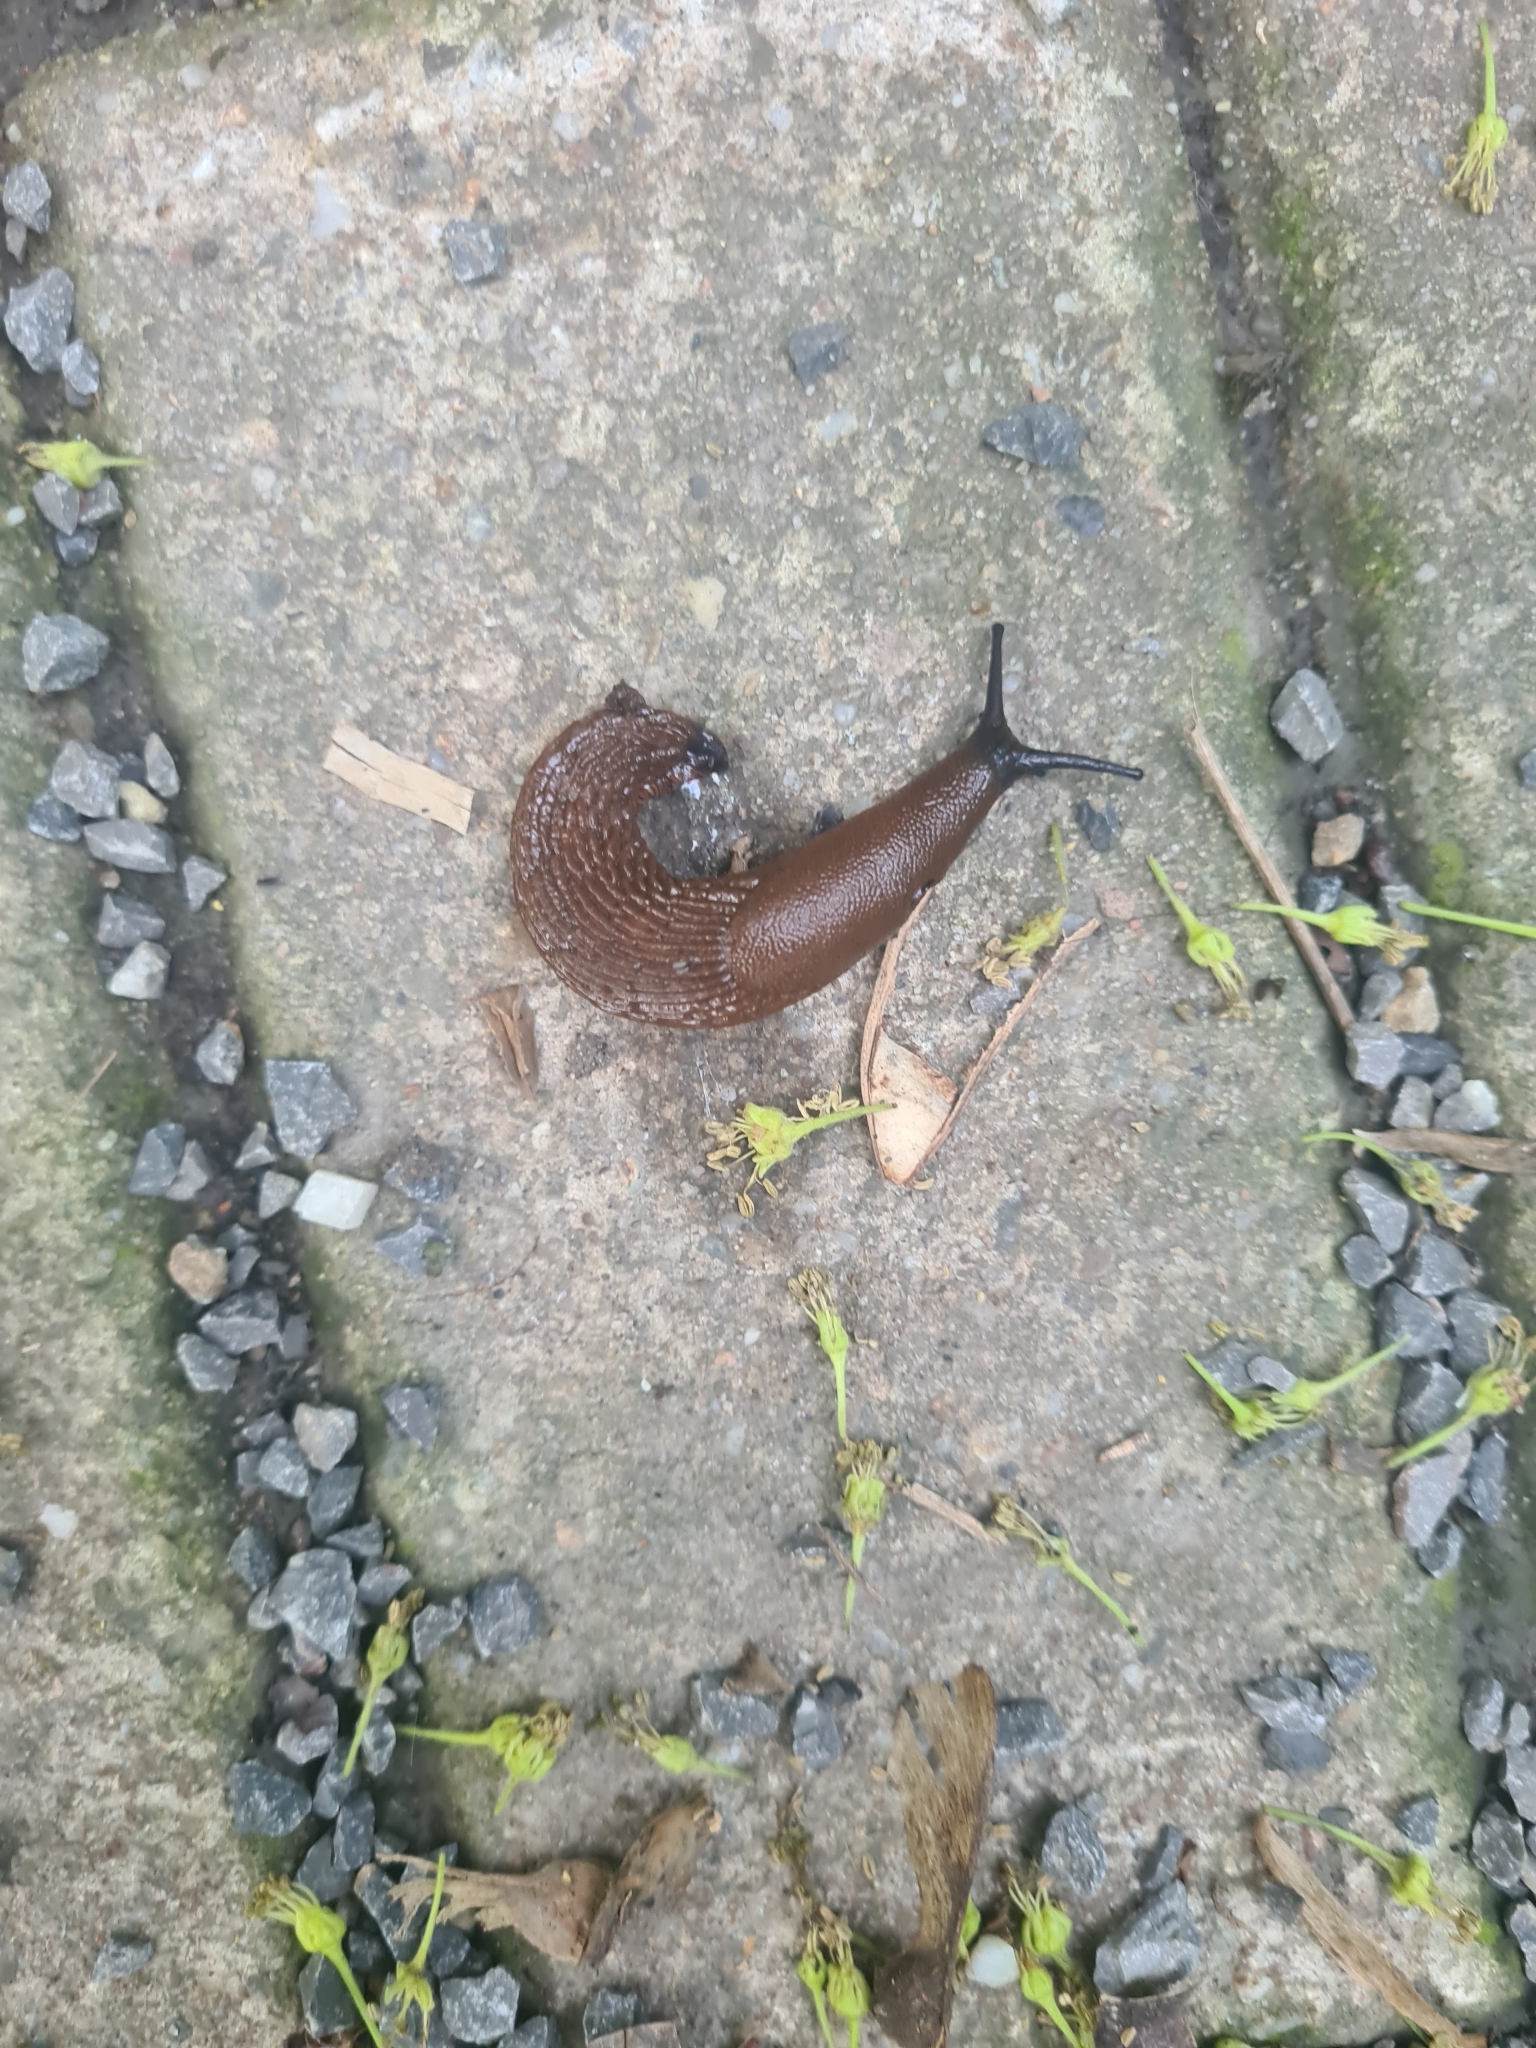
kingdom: Animalia
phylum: Mollusca
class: Gastropoda
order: Stylommatophora
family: Arionidae
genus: Arion
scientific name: Arion
